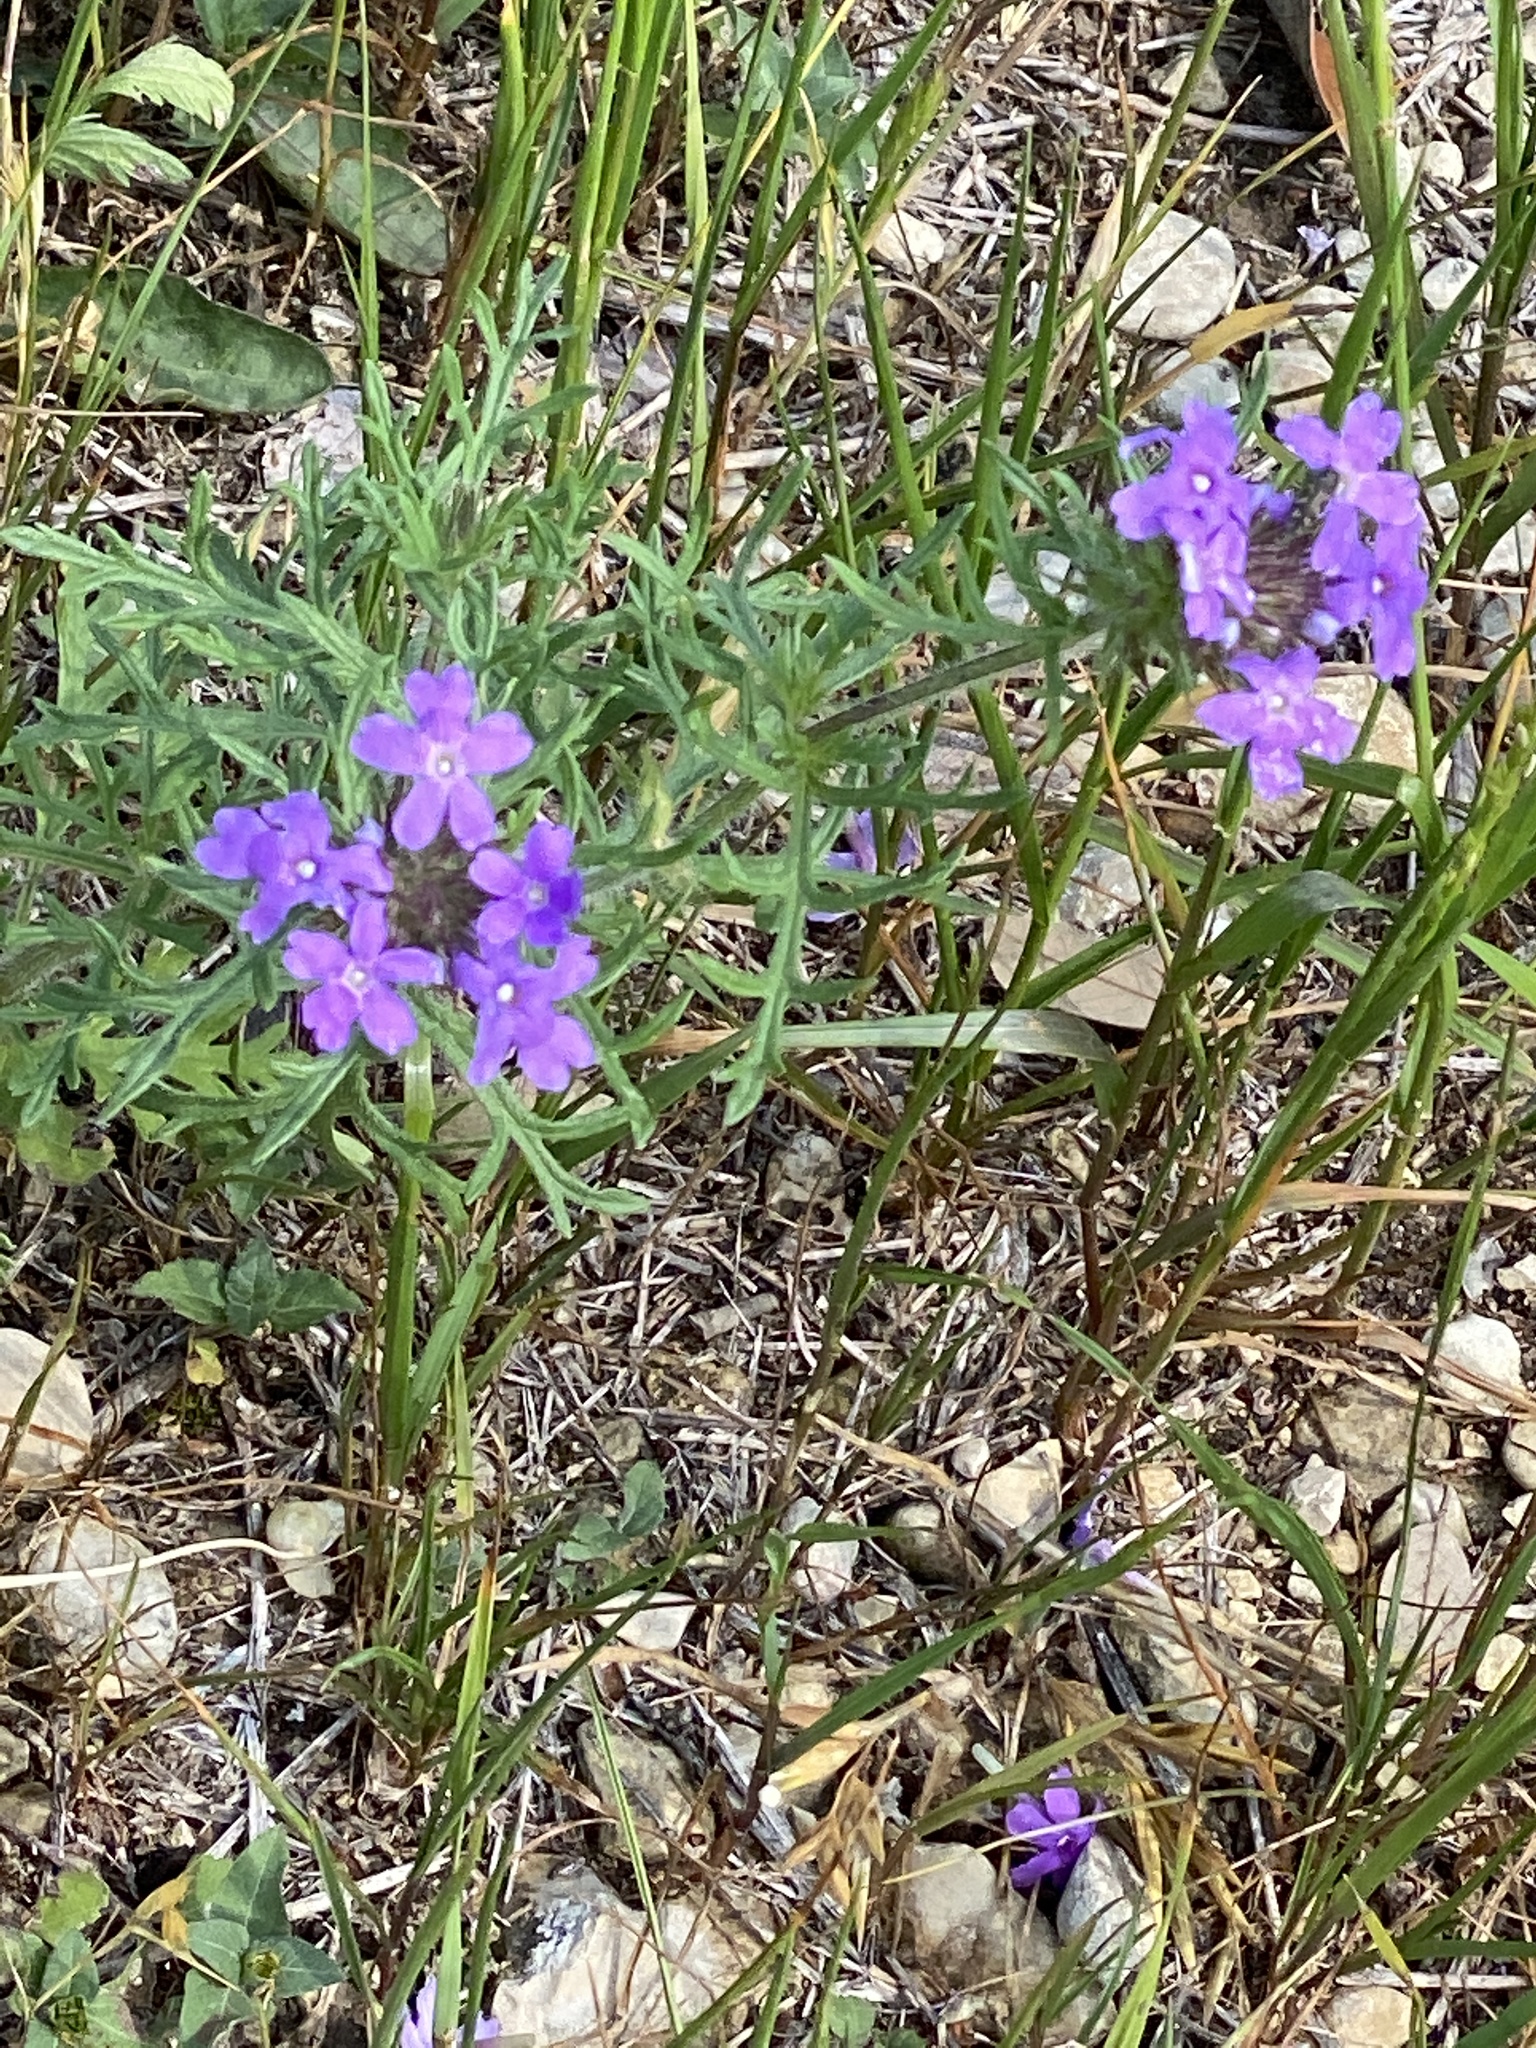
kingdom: Plantae
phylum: Tracheophyta
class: Magnoliopsida
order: Lamiales
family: Verbenaceae
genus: Verbena
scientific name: Verbena bipinnatifida
